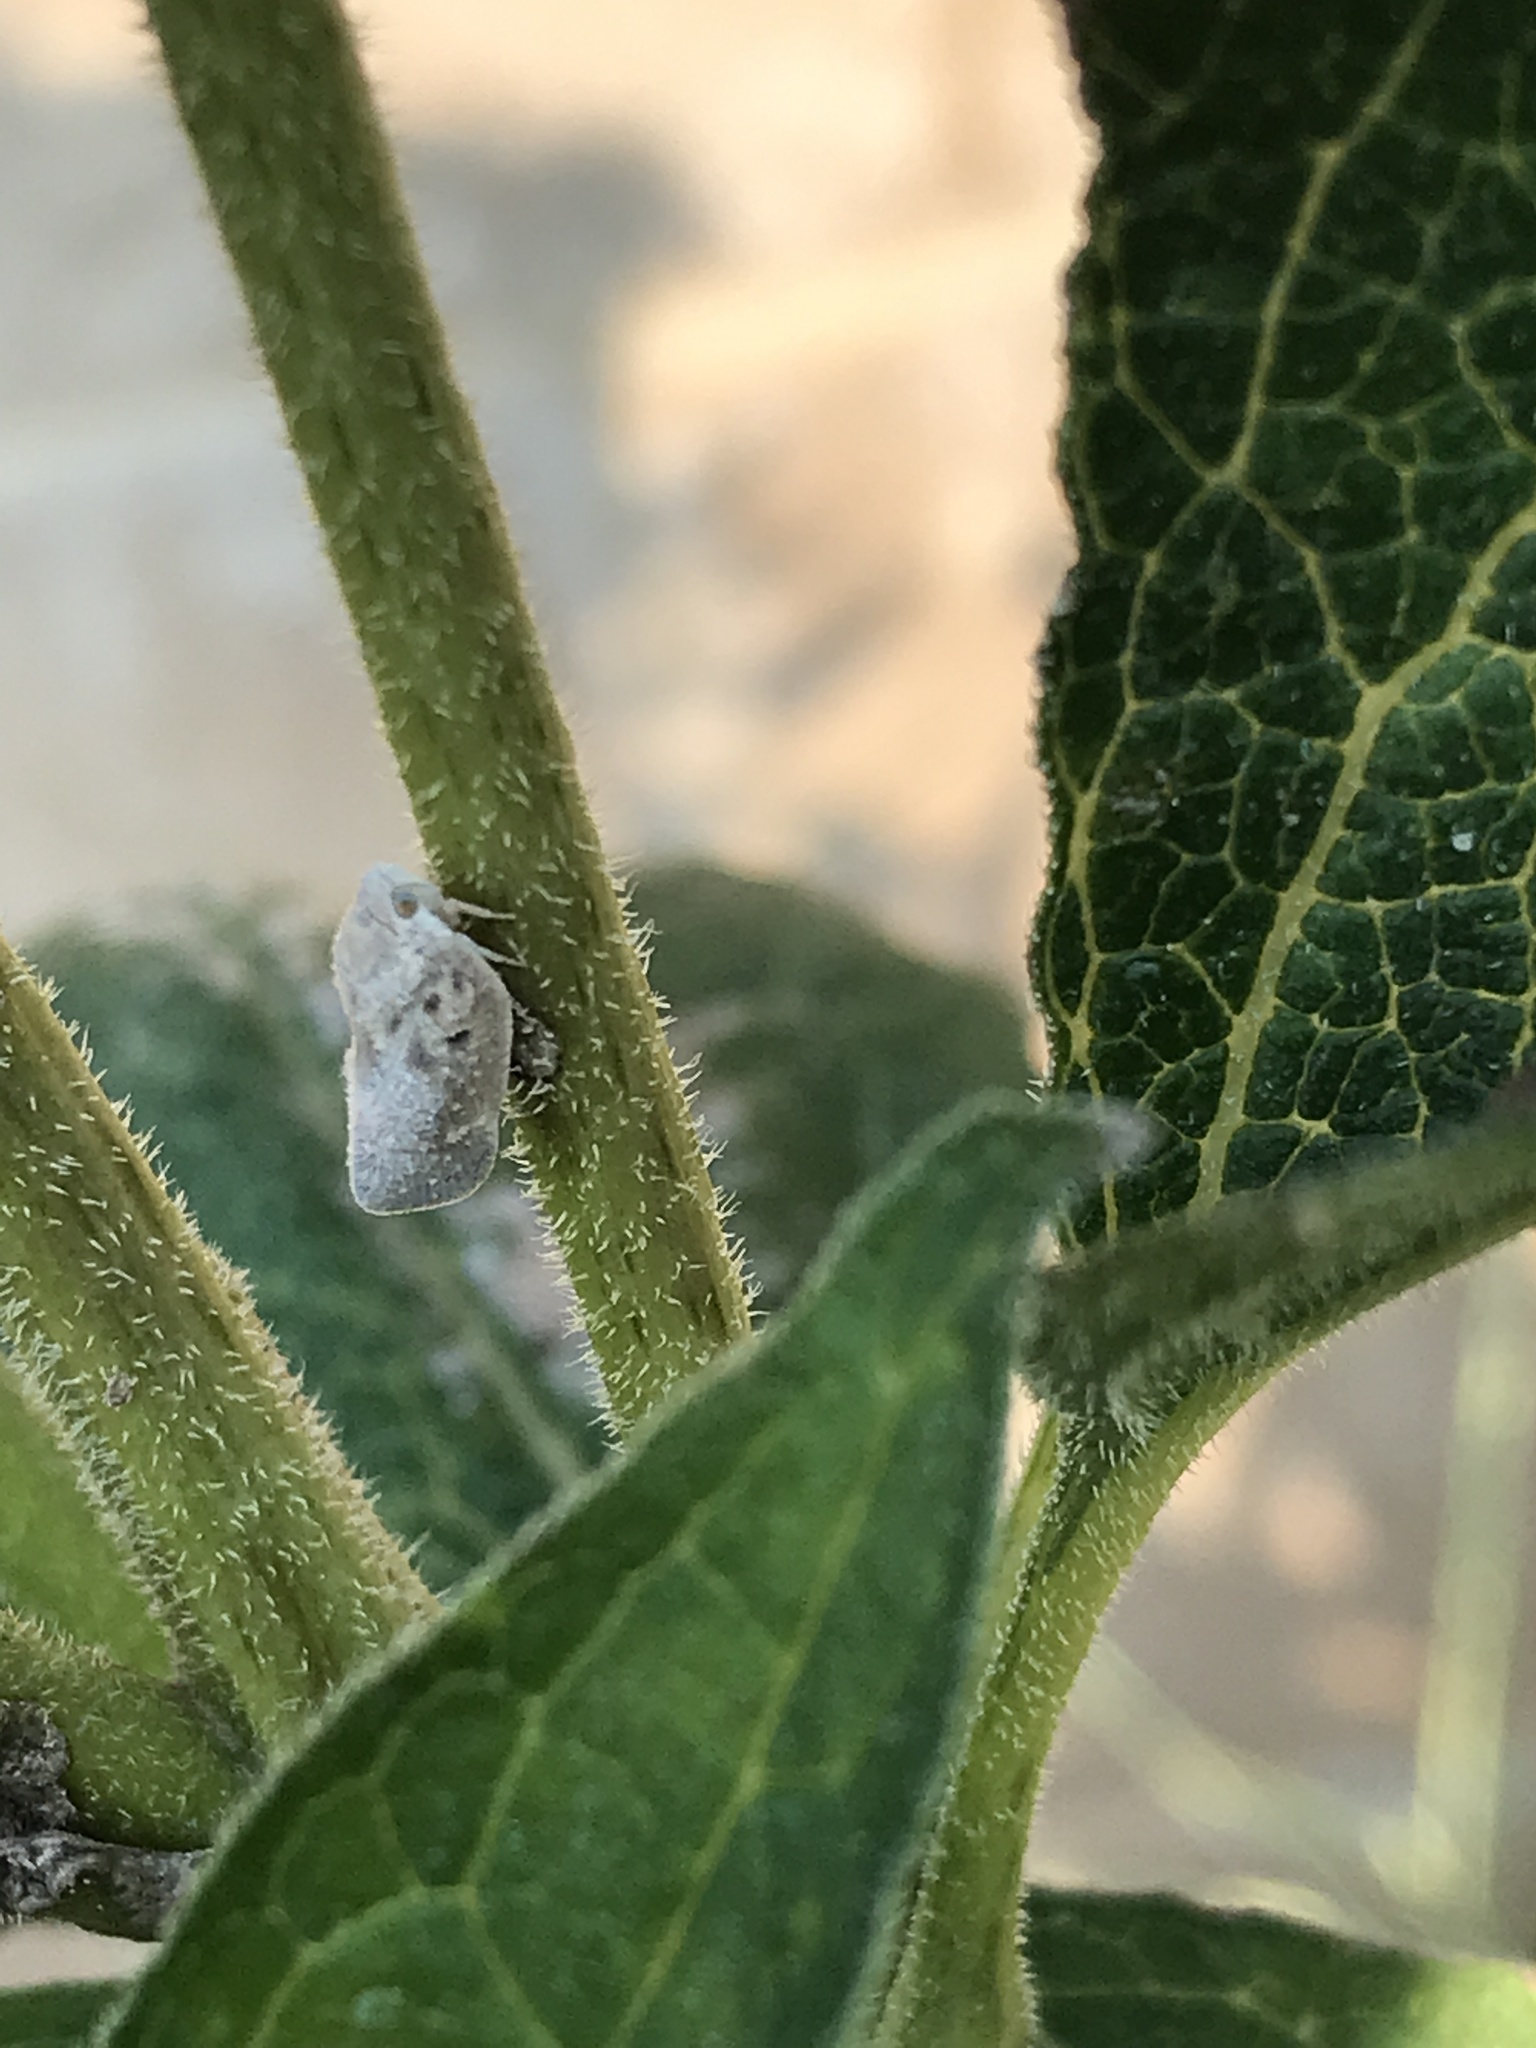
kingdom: Animalia
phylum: Arthropoda
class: Insecta
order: Hemiptera
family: Flatidae
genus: Metcalfa
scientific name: Metcalfa pruinosa
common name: Citrus flatid planthopper
